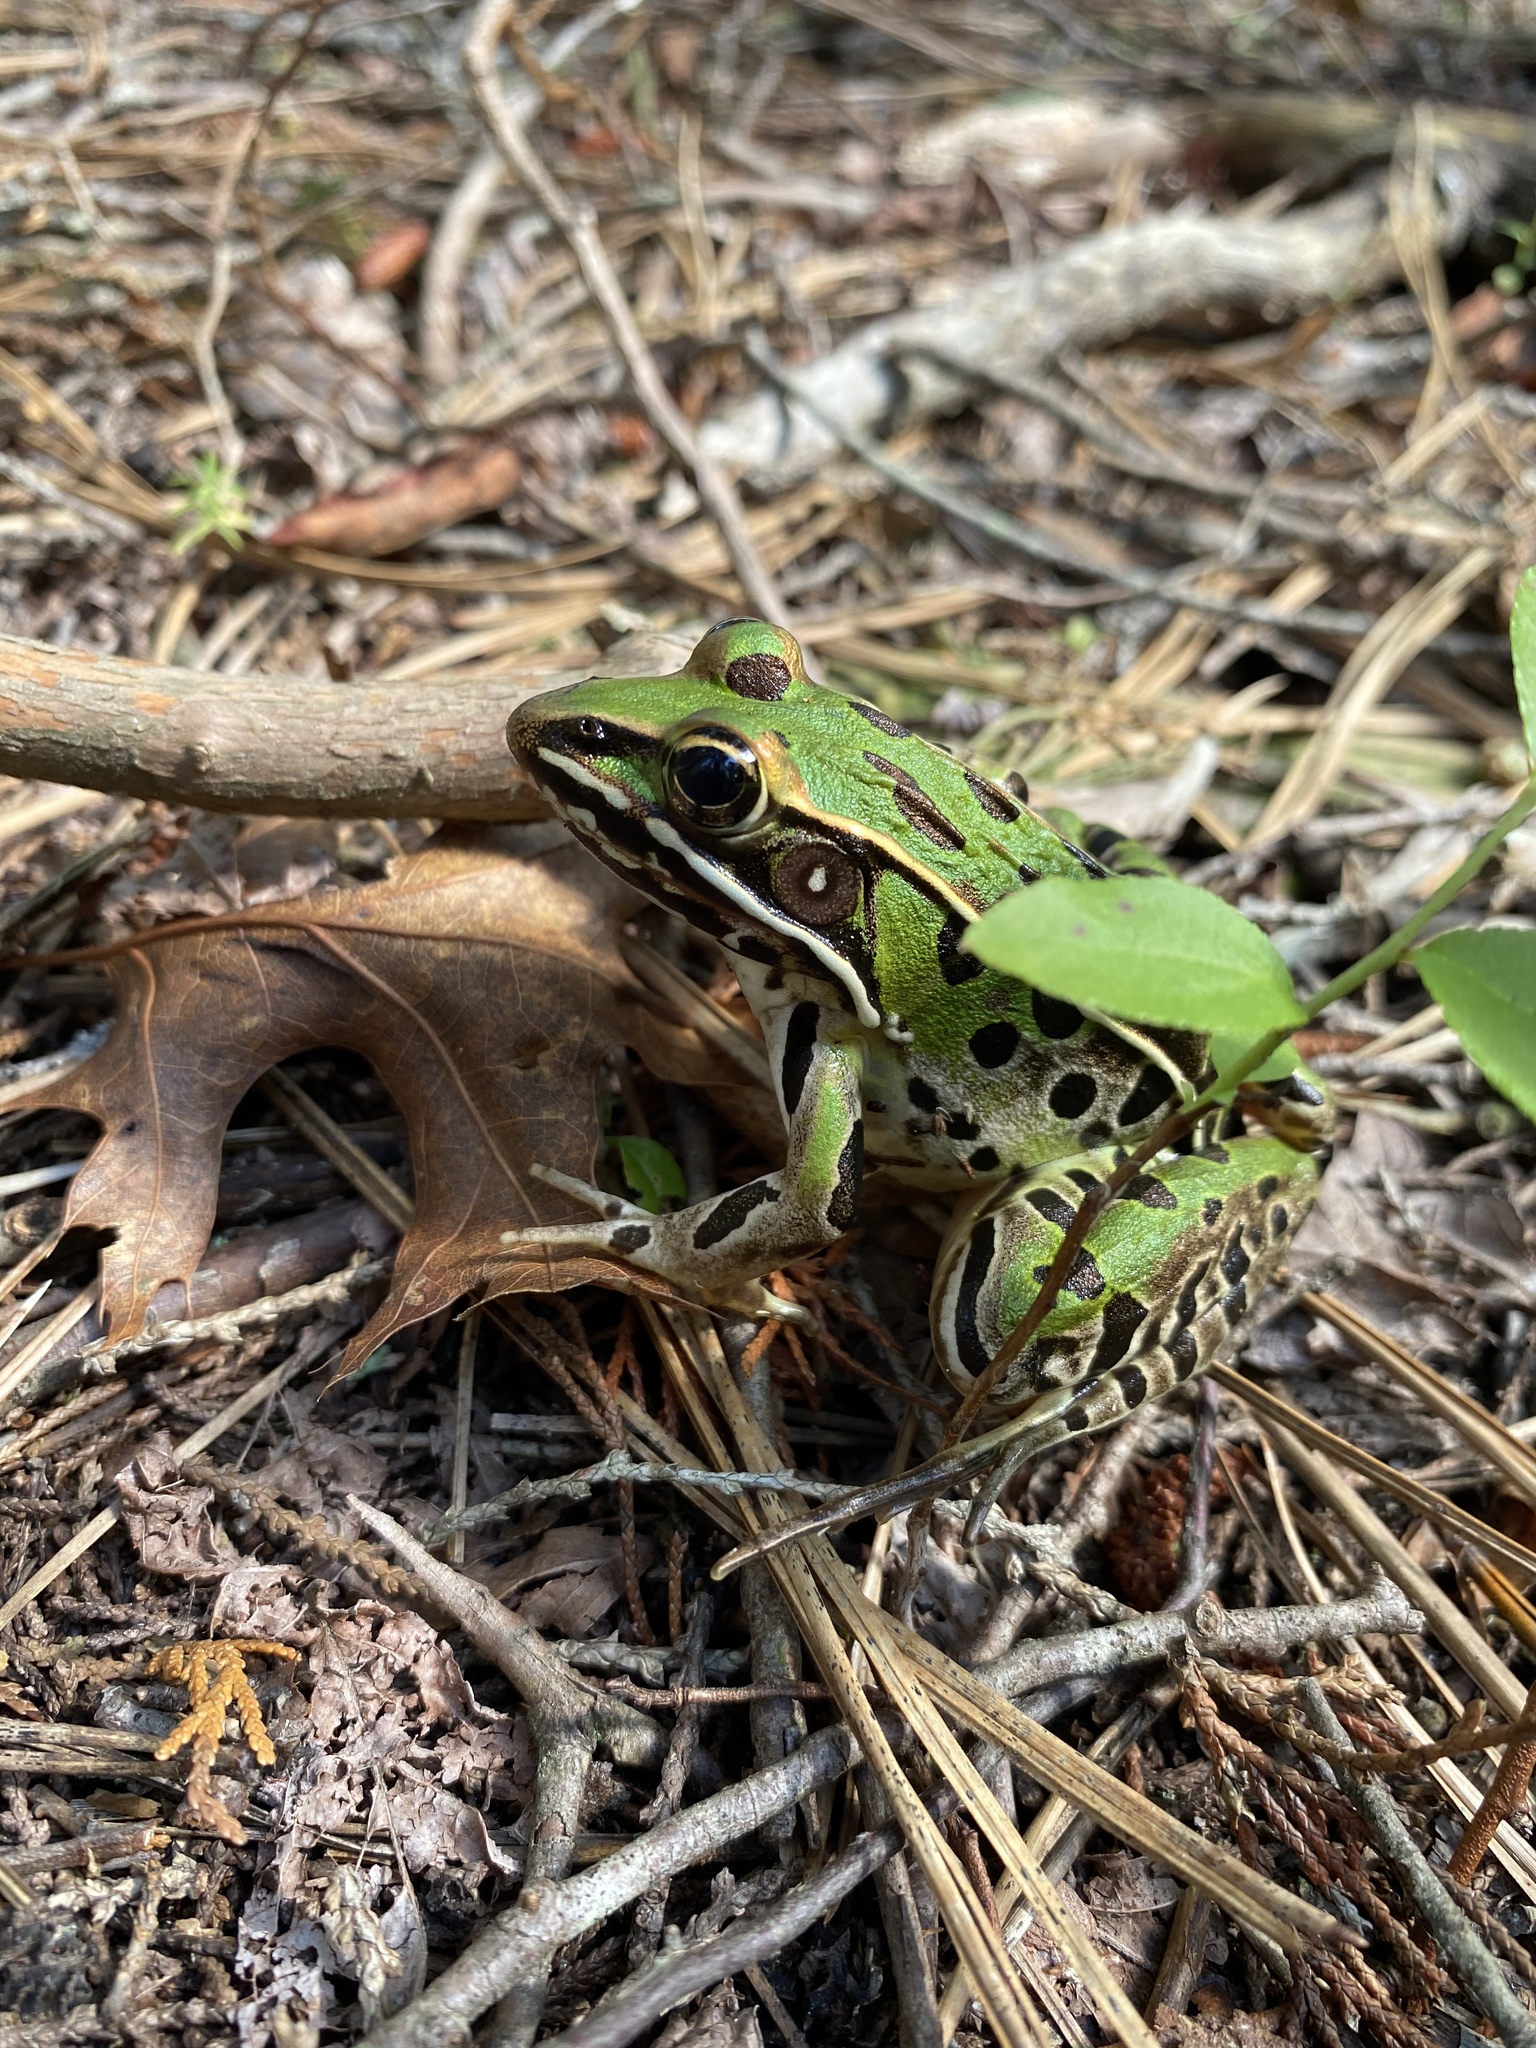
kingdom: Animalia
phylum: Chordata
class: Amphibia
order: Anura
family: Ranidae
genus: Lithobates
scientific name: Lithobates sphenocephalus
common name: Southern leopard frog
